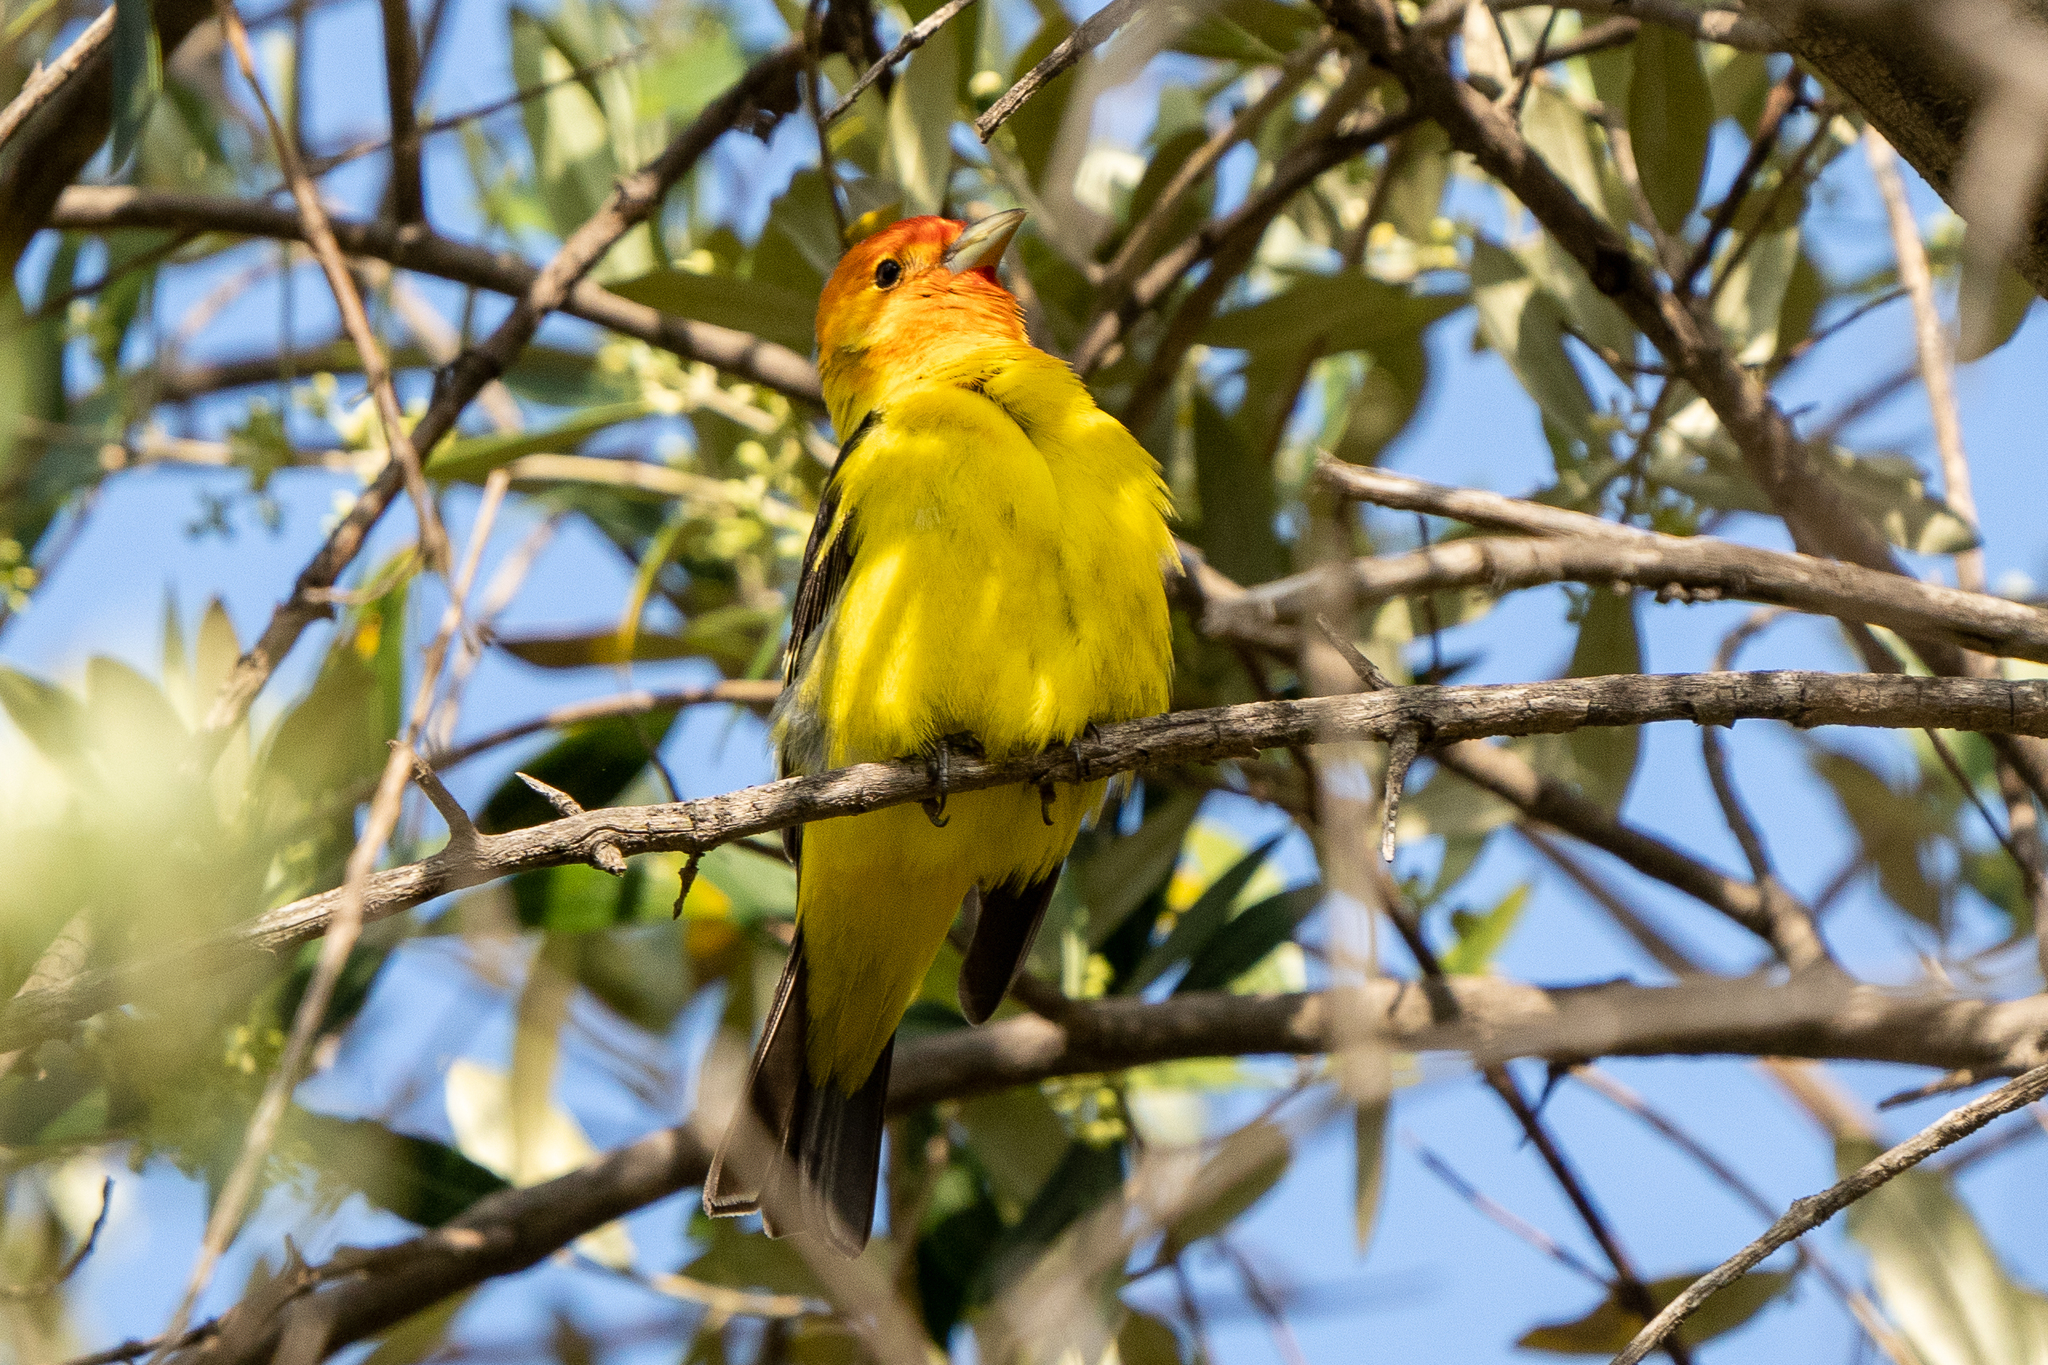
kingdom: Animalia
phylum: Chordata
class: Aves
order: Passeriformes
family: Cardinalidae
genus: Piranga
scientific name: Piranga ludoviciana
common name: Western tanager
